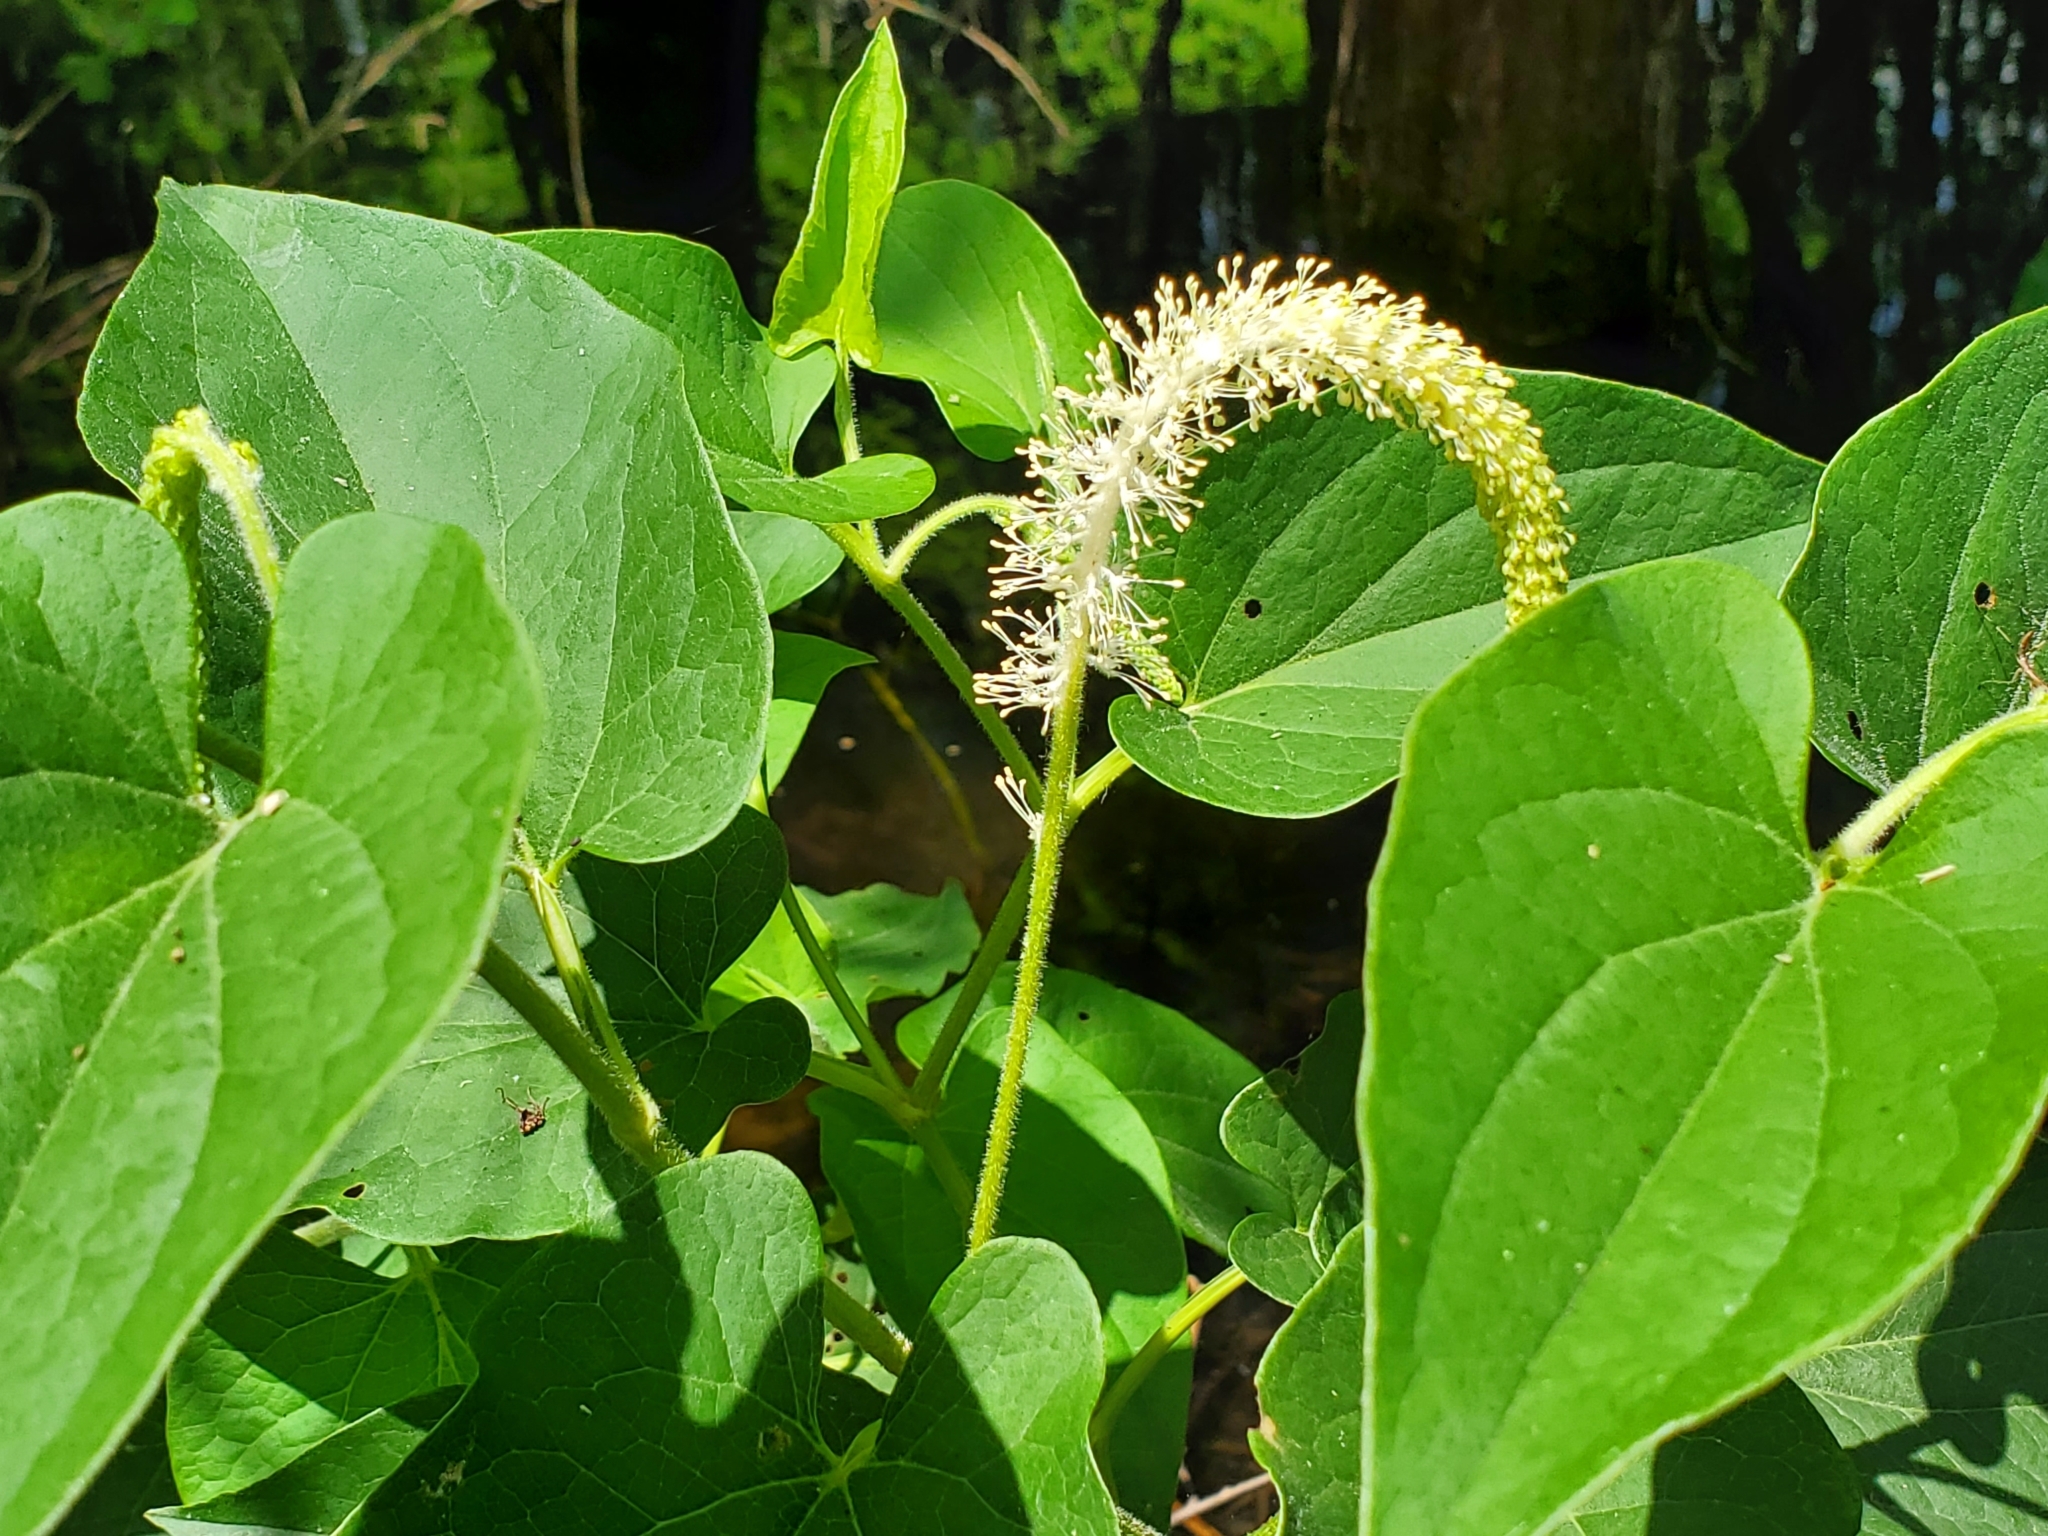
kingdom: Plantae
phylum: Tracheophyta
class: Magnoliopsida
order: Piperales
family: Saururaceae
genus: Saururus
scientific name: Saururus cernuus
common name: Lizard's-tail
